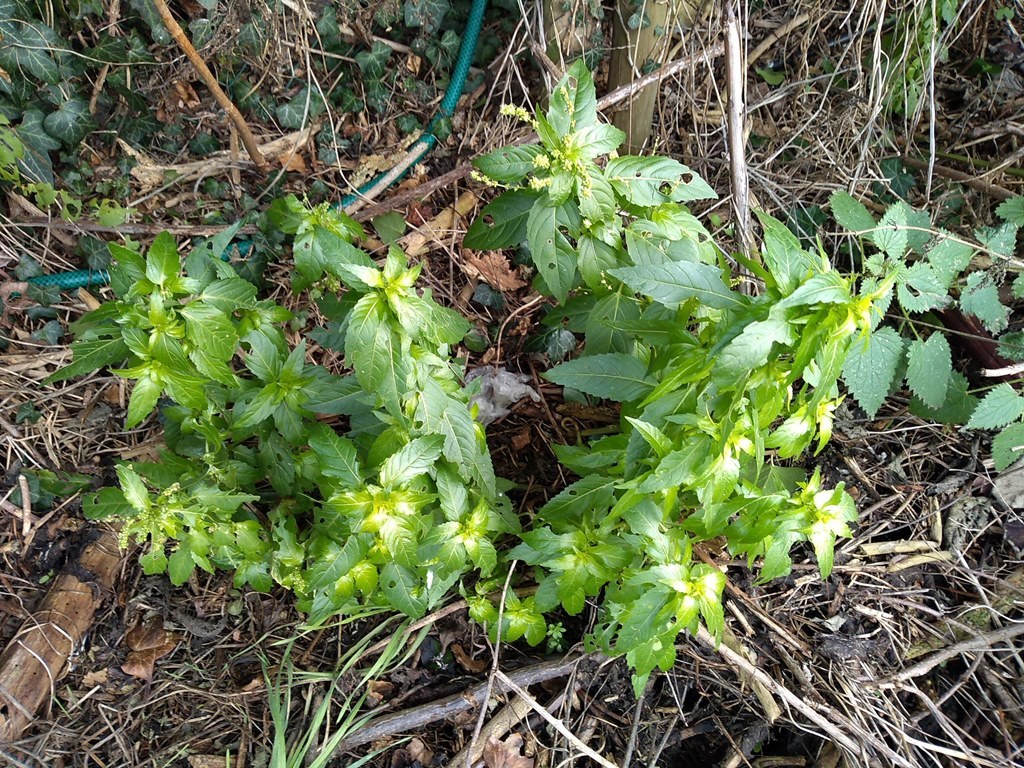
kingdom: Plantae
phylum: Tracheophyta
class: Magnoliopsida
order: Malpighiales
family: Euphorbiaceae
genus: Mercurialis
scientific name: Mercurialis annua
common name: Annual mercury
